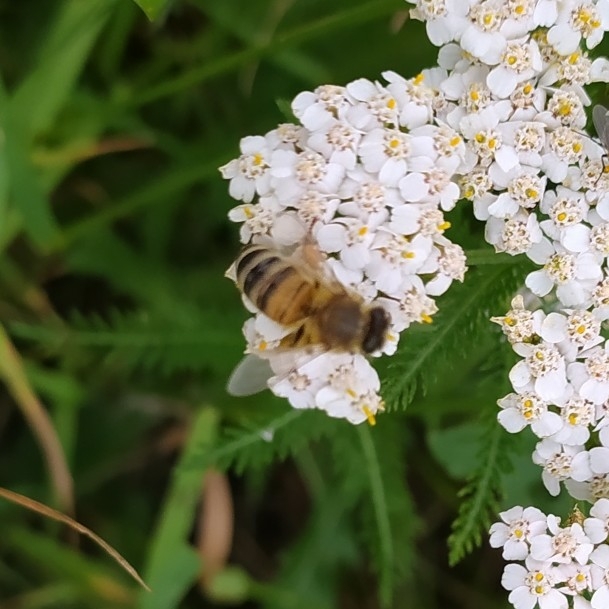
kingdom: Animalia
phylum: Arthropoda
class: Insecta
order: Hymenoptera
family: Apidae
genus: Apis
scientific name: Apis mellifera
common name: Honey bee
